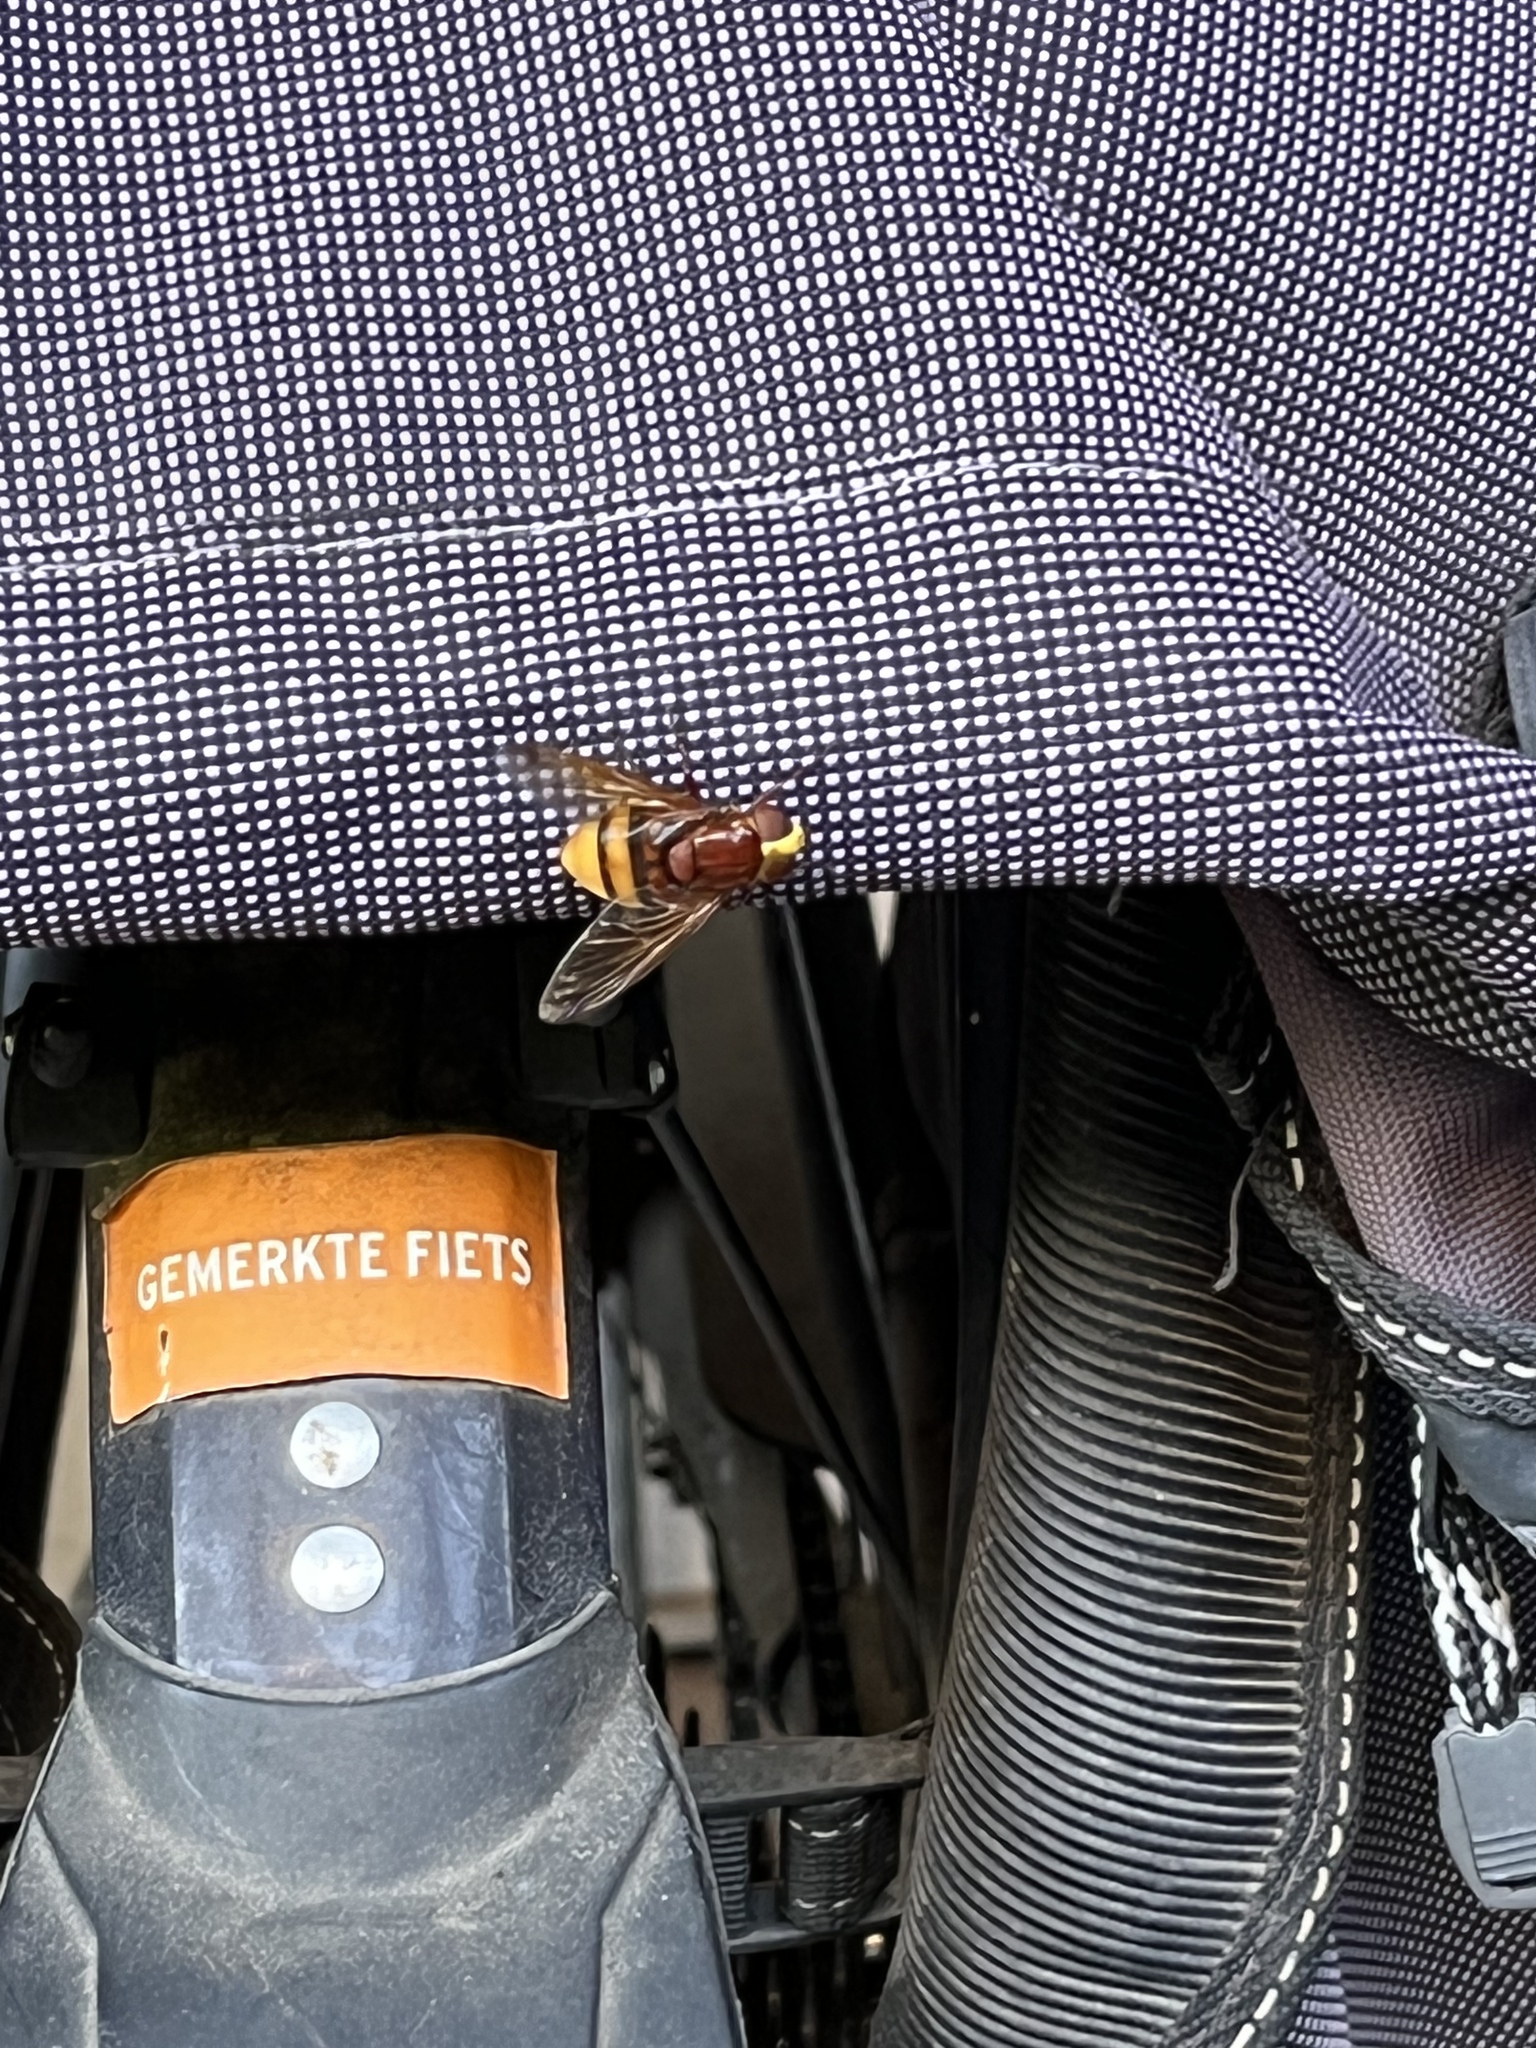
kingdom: Animalia
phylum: Arthropoda
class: Insecta
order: Diptera
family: Syrphidae
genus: Volucella
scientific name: Volucella zonaria
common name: Hornet hoverfly
